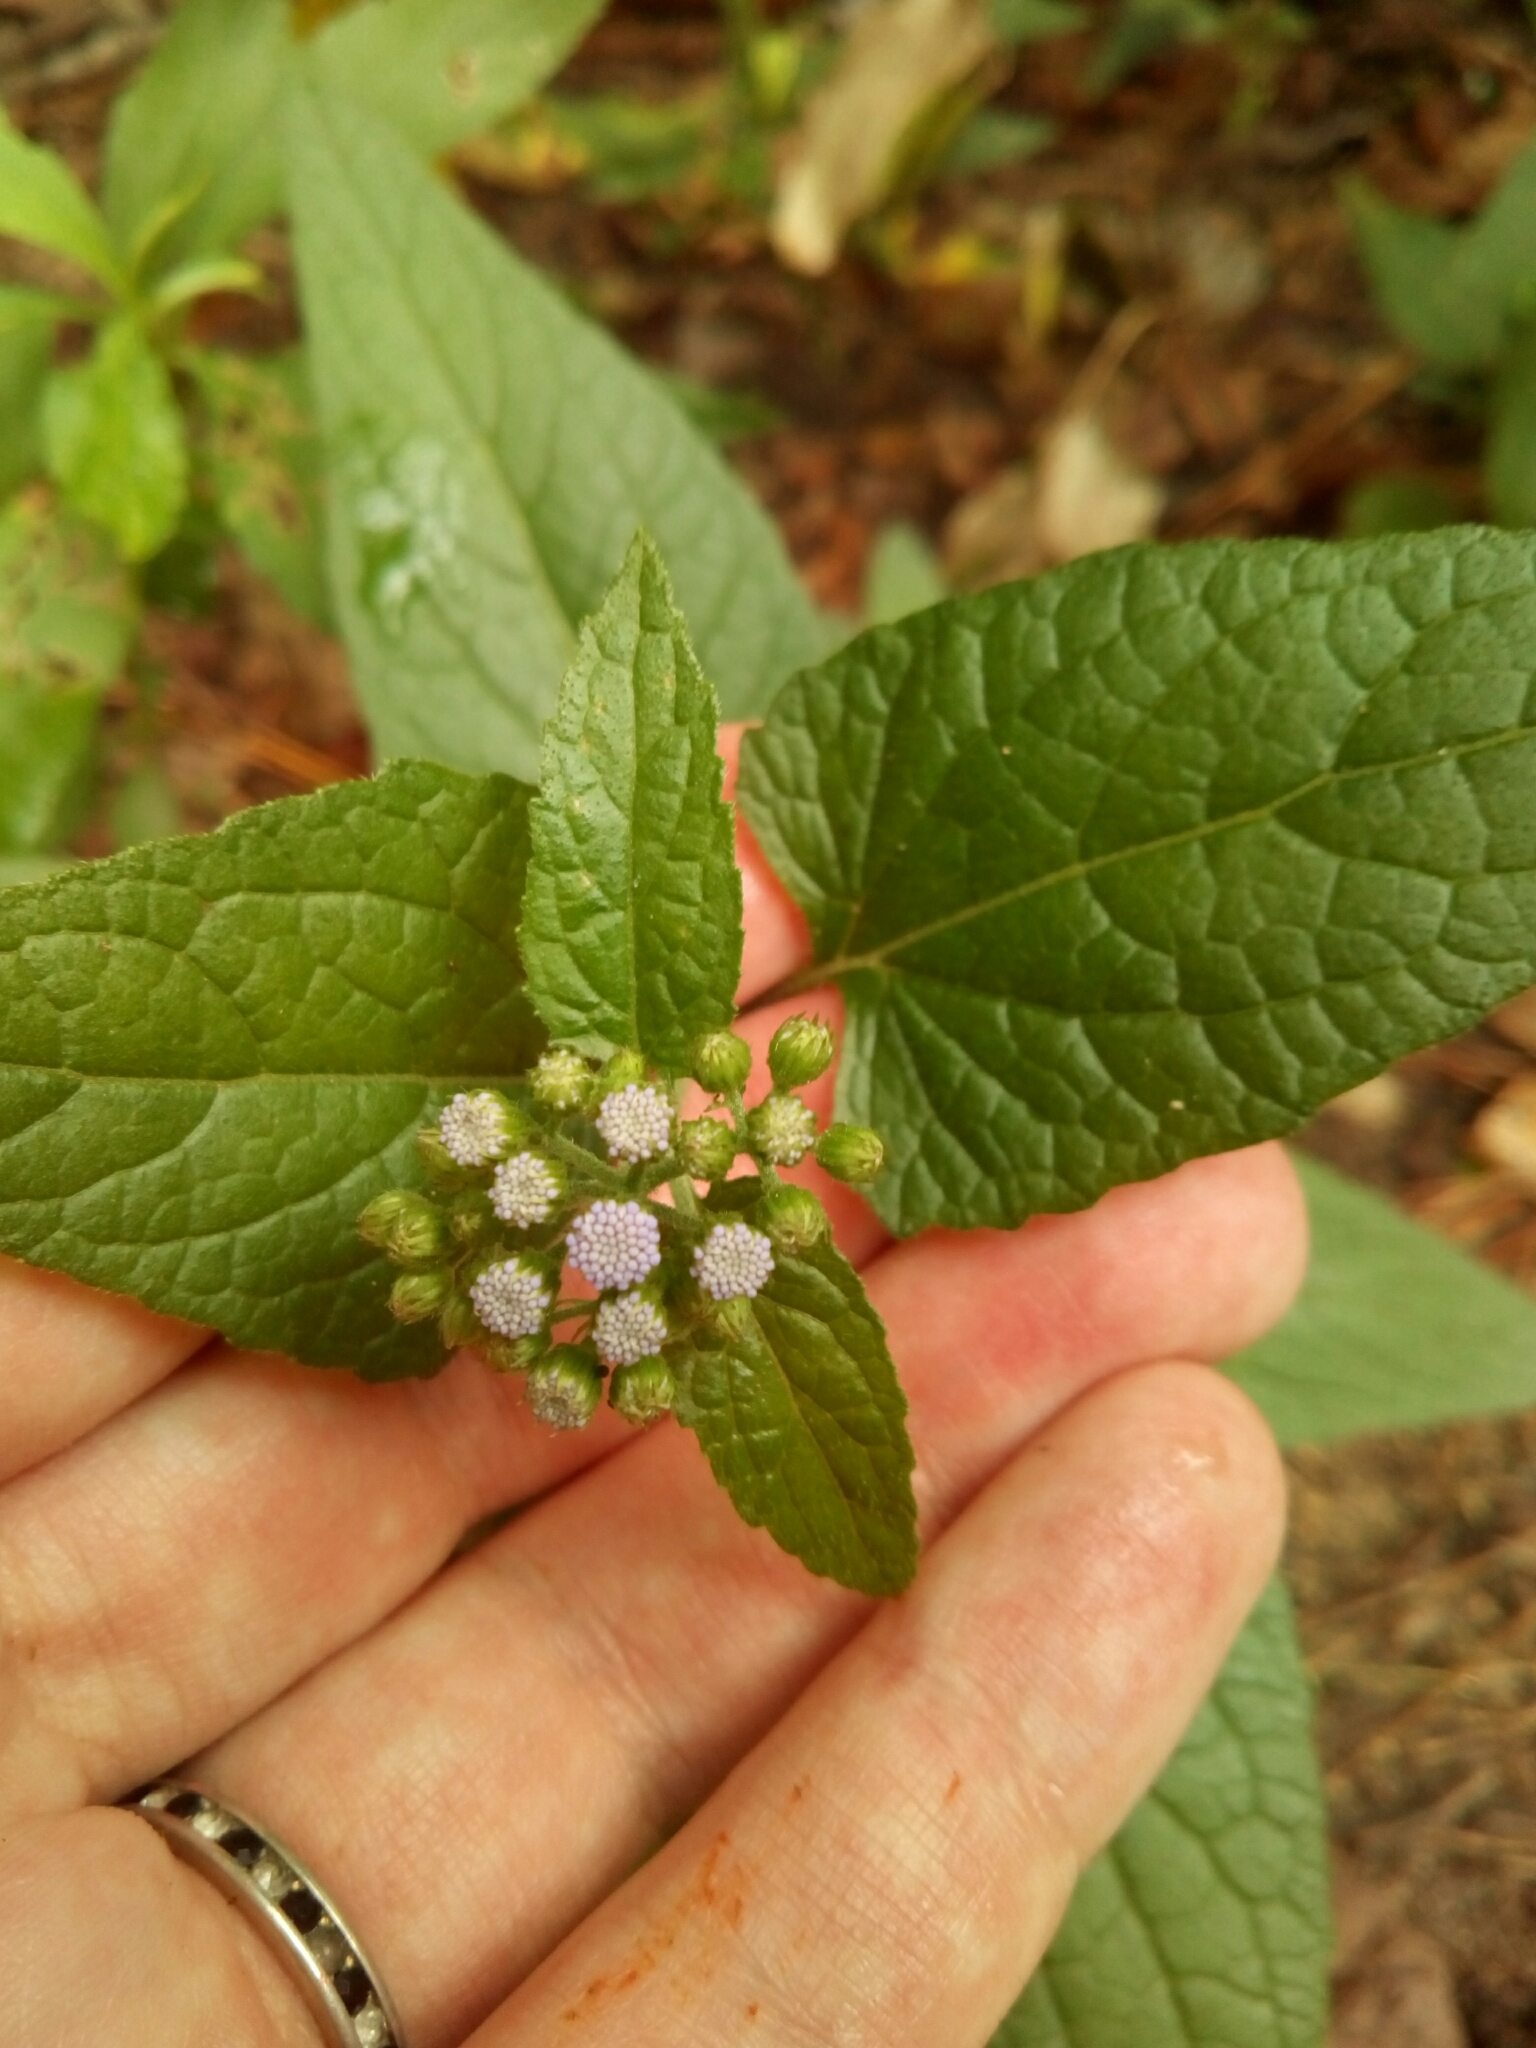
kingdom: Plantae
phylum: Tracheophyta
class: Magnoliopsida
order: Asterales
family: Asteraceae
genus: Conoclinium
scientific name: Conoclinium coelestinum
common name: Blue mistflower
